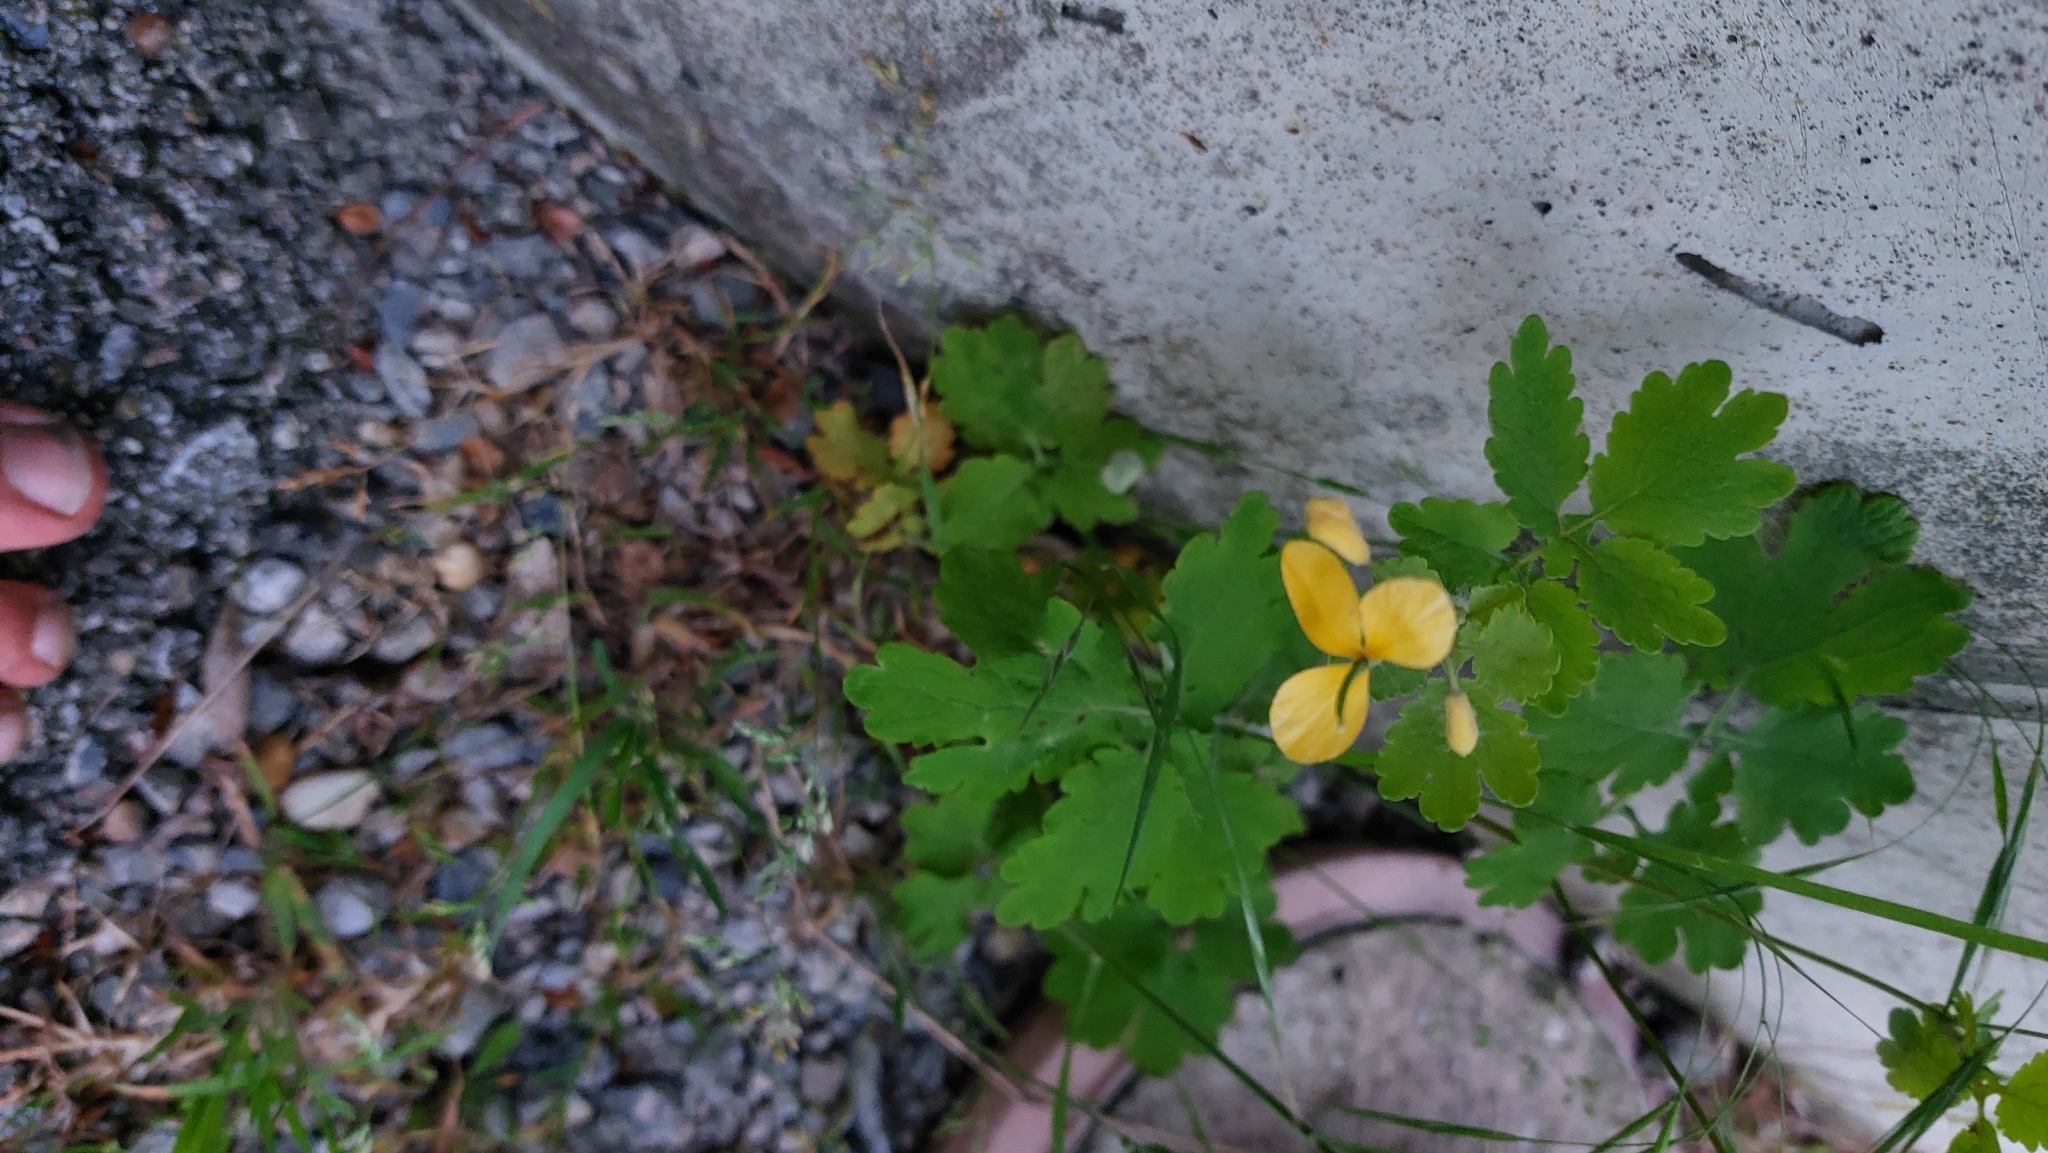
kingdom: Plantae
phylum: Tracheophyta
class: Magnoliopsida
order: Ranunculales
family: Papaveraceae
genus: Chelidonium
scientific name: Chelidonium majus
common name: Greater celandine
